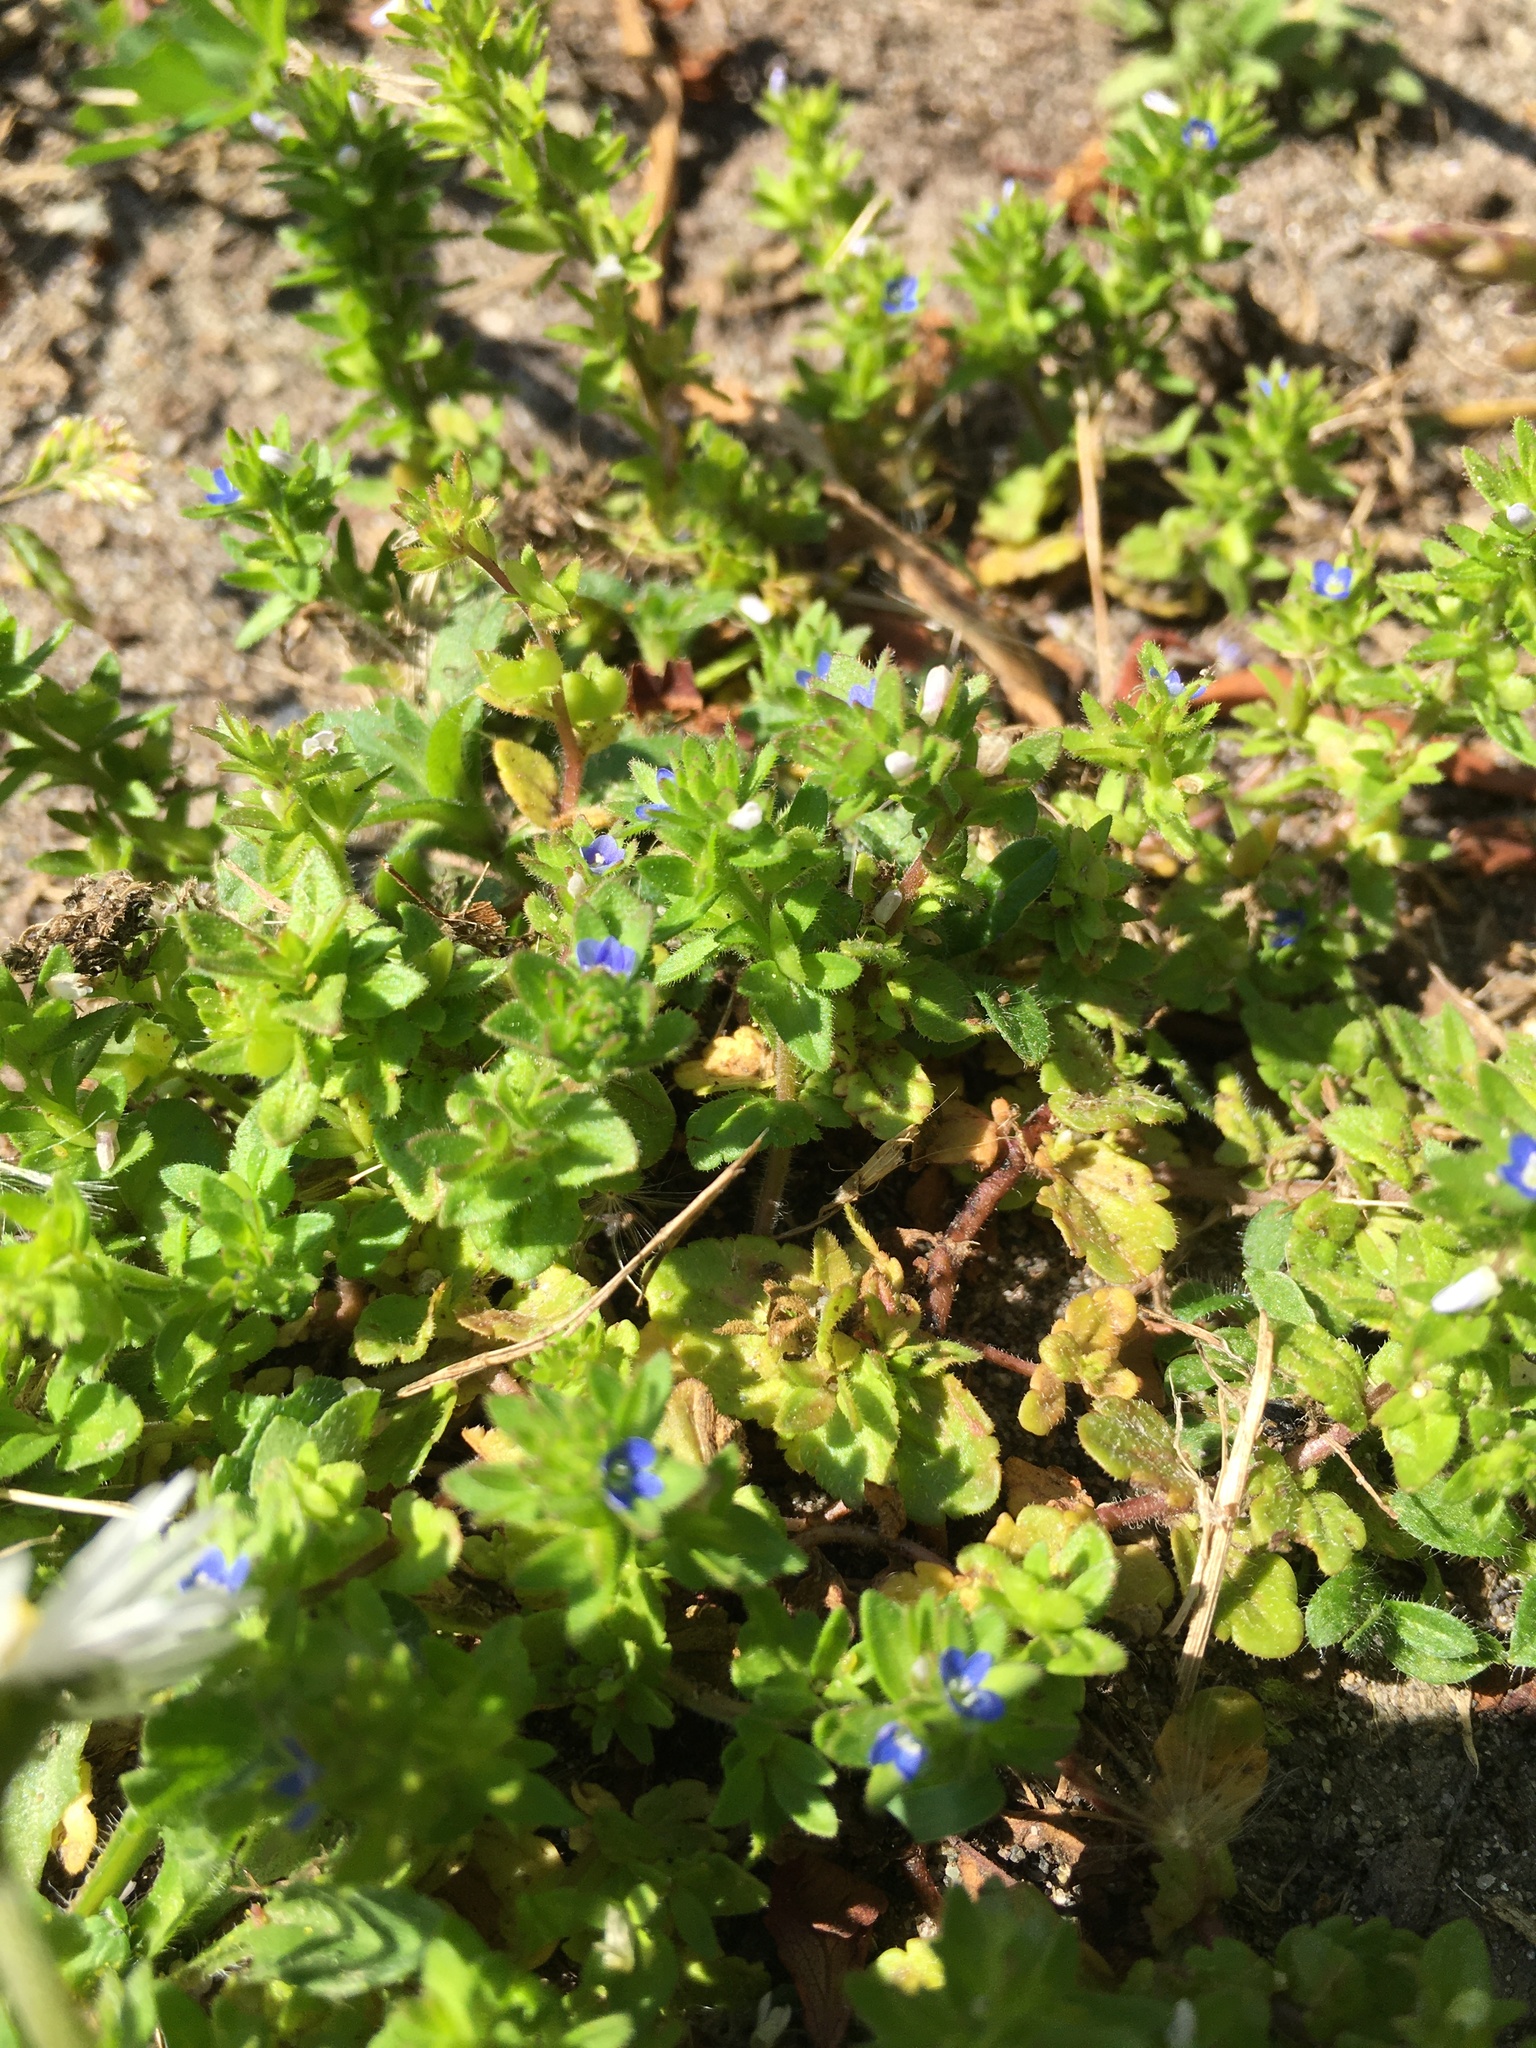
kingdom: Plantae
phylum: Tracheophyta
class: Magnoliopsida
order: Lamiales
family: Plantaginaceae
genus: Veronica
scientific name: Veronica arvensis
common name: Corn speedwell
